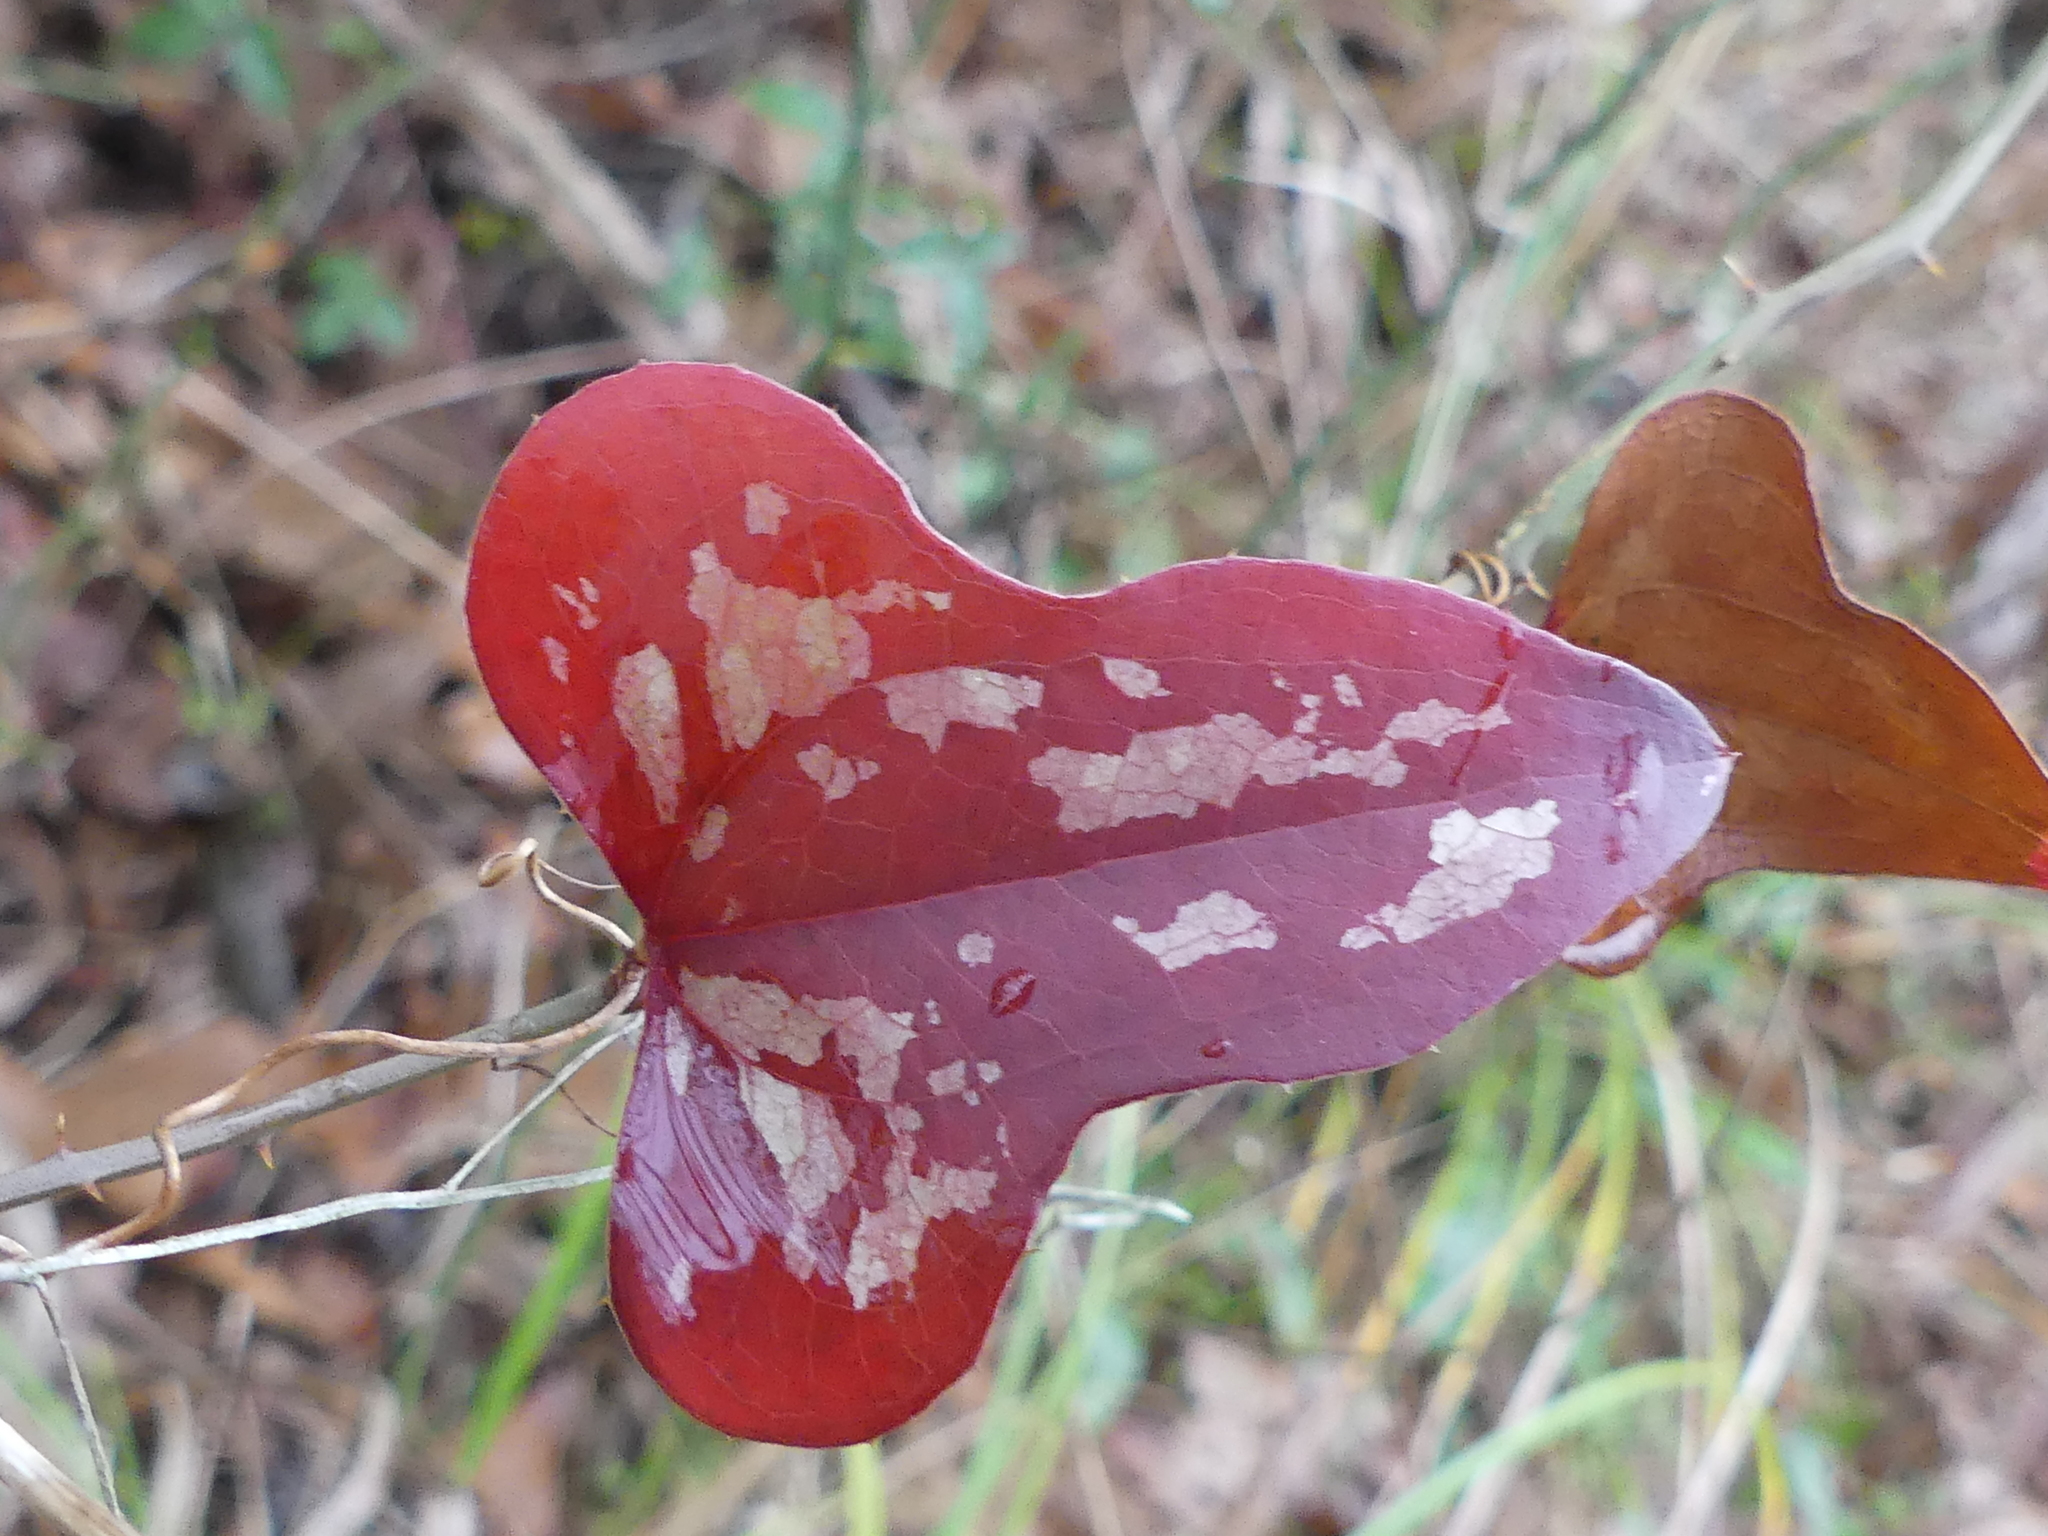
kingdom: Plantae
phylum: Tracheophyta
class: Liliopsida
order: Liliales
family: Smilacaceae
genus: Smilax
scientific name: Smilax bona-nox
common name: Catbrier
